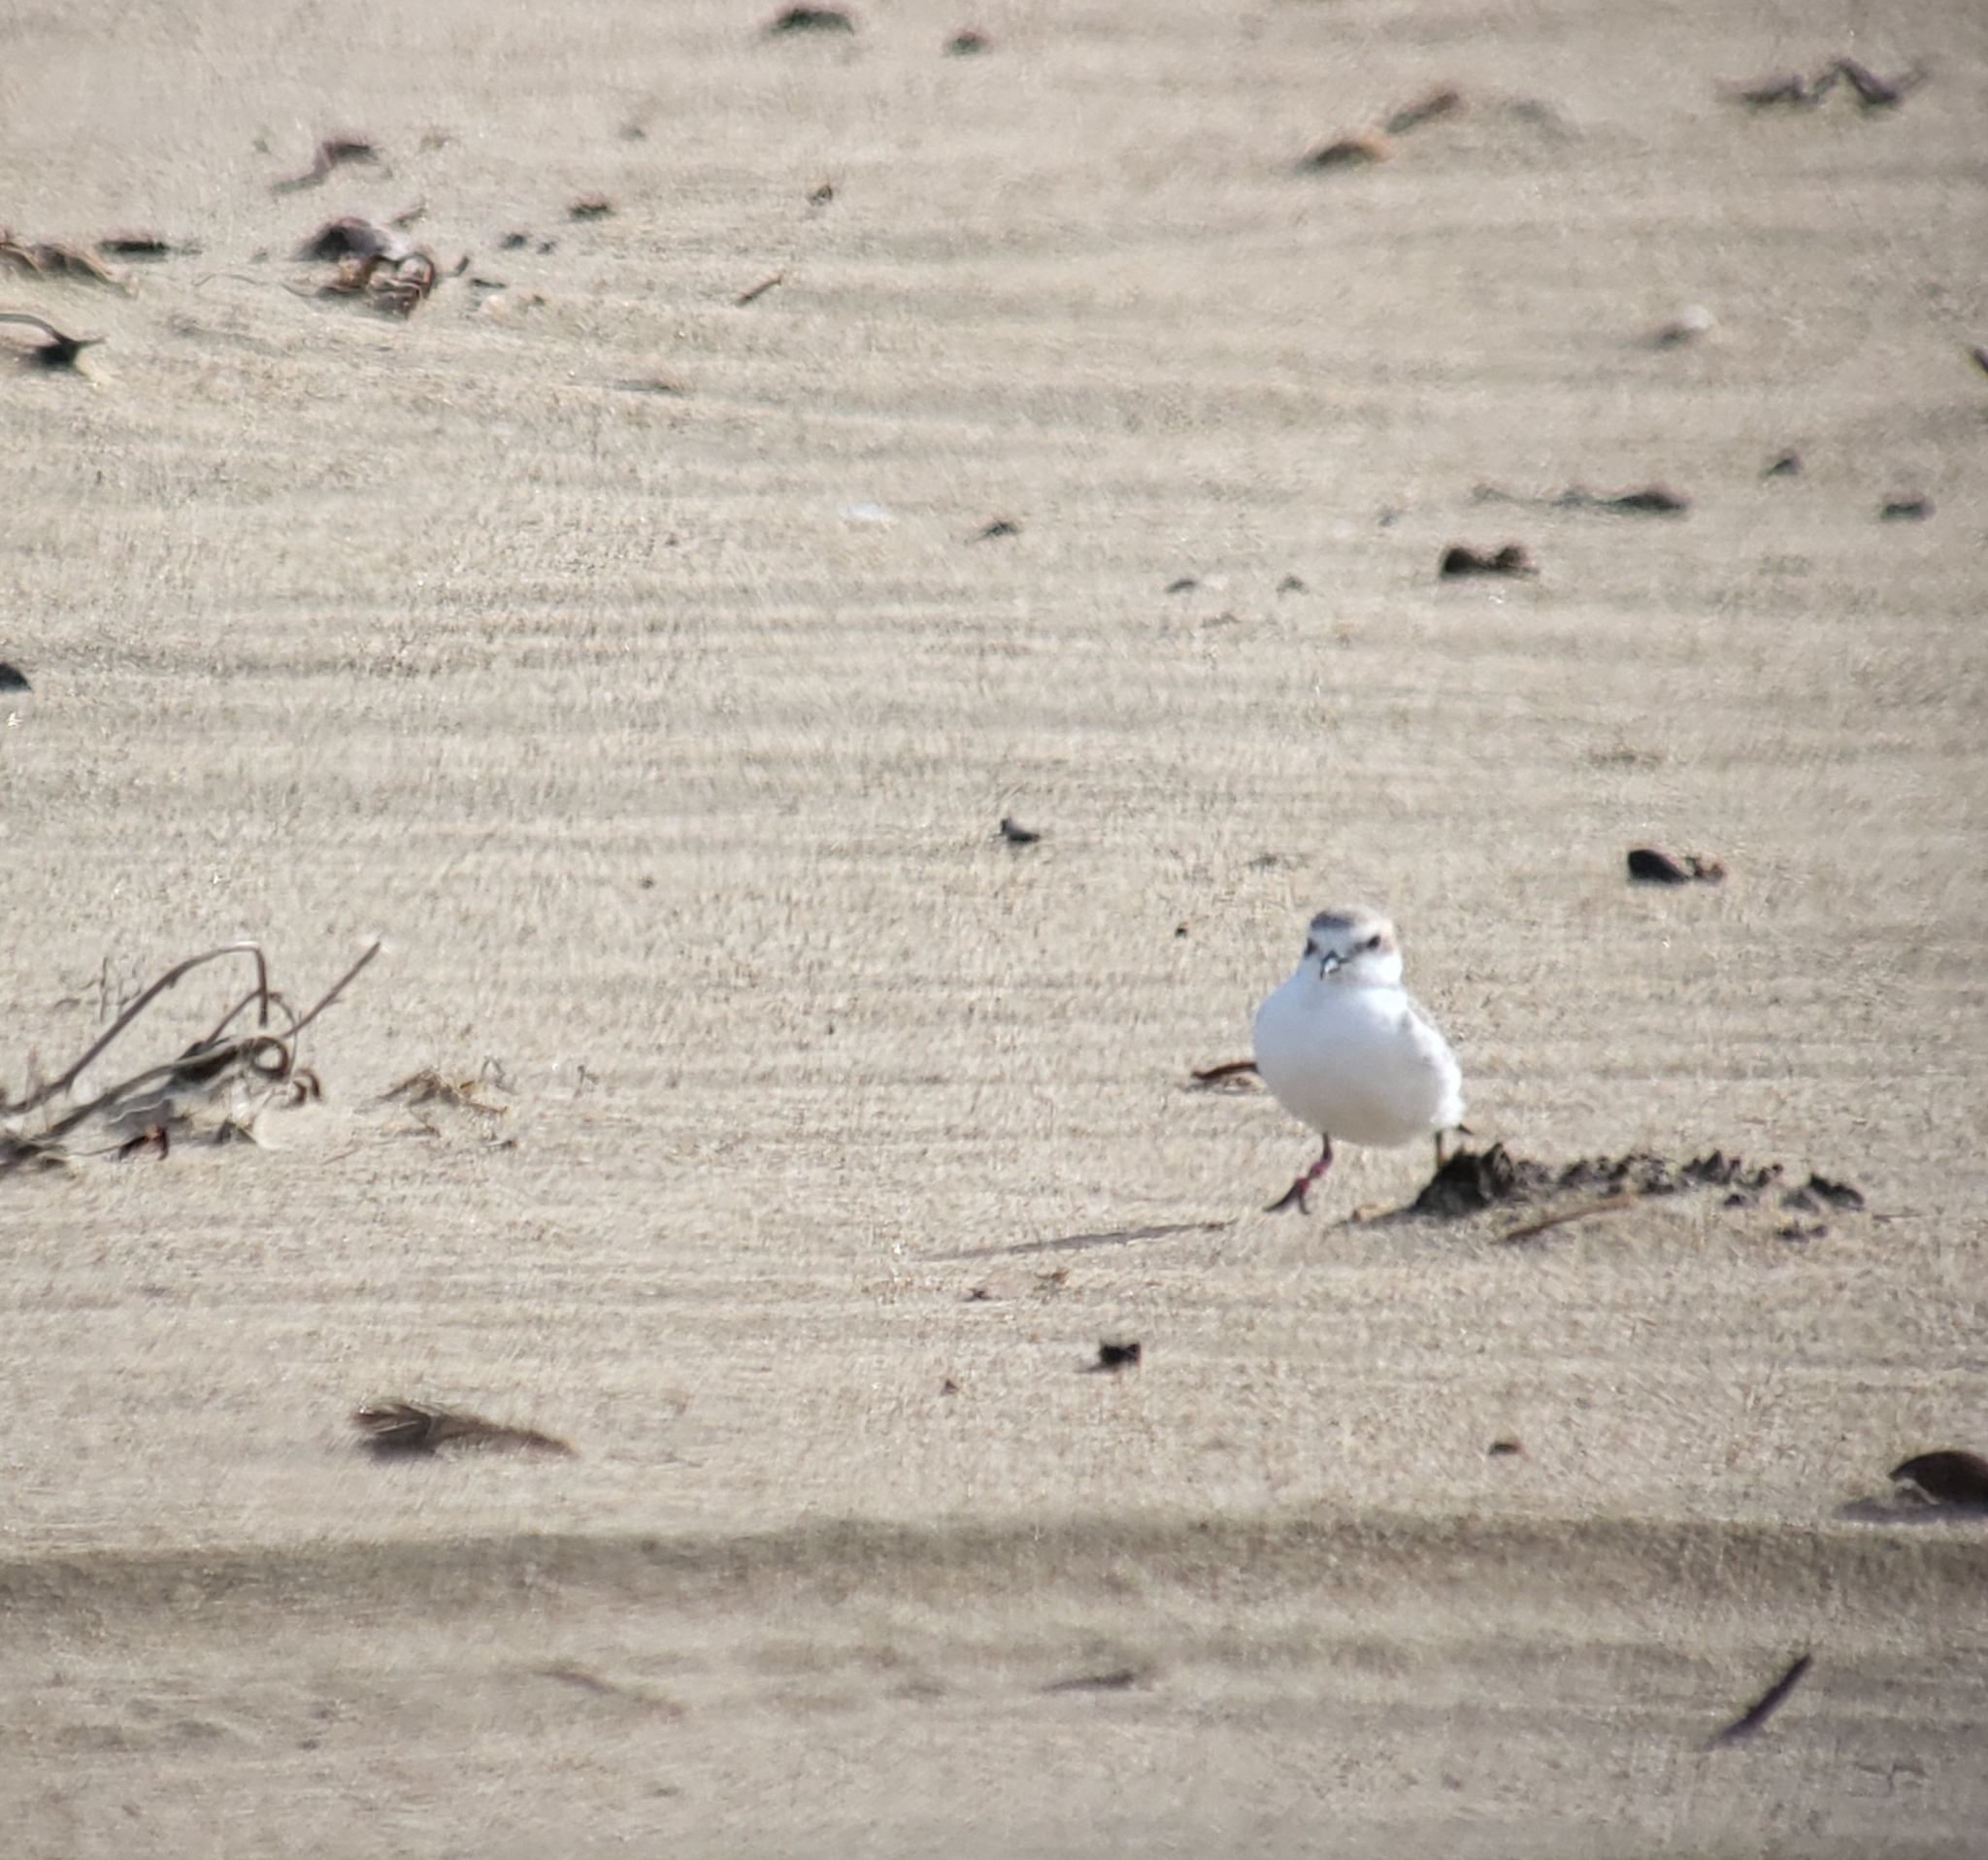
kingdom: Animalia
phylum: Chordata
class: Aves
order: Charadriiformes
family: Charadriidae
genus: Anarhynchus
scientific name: Anarhynchus
